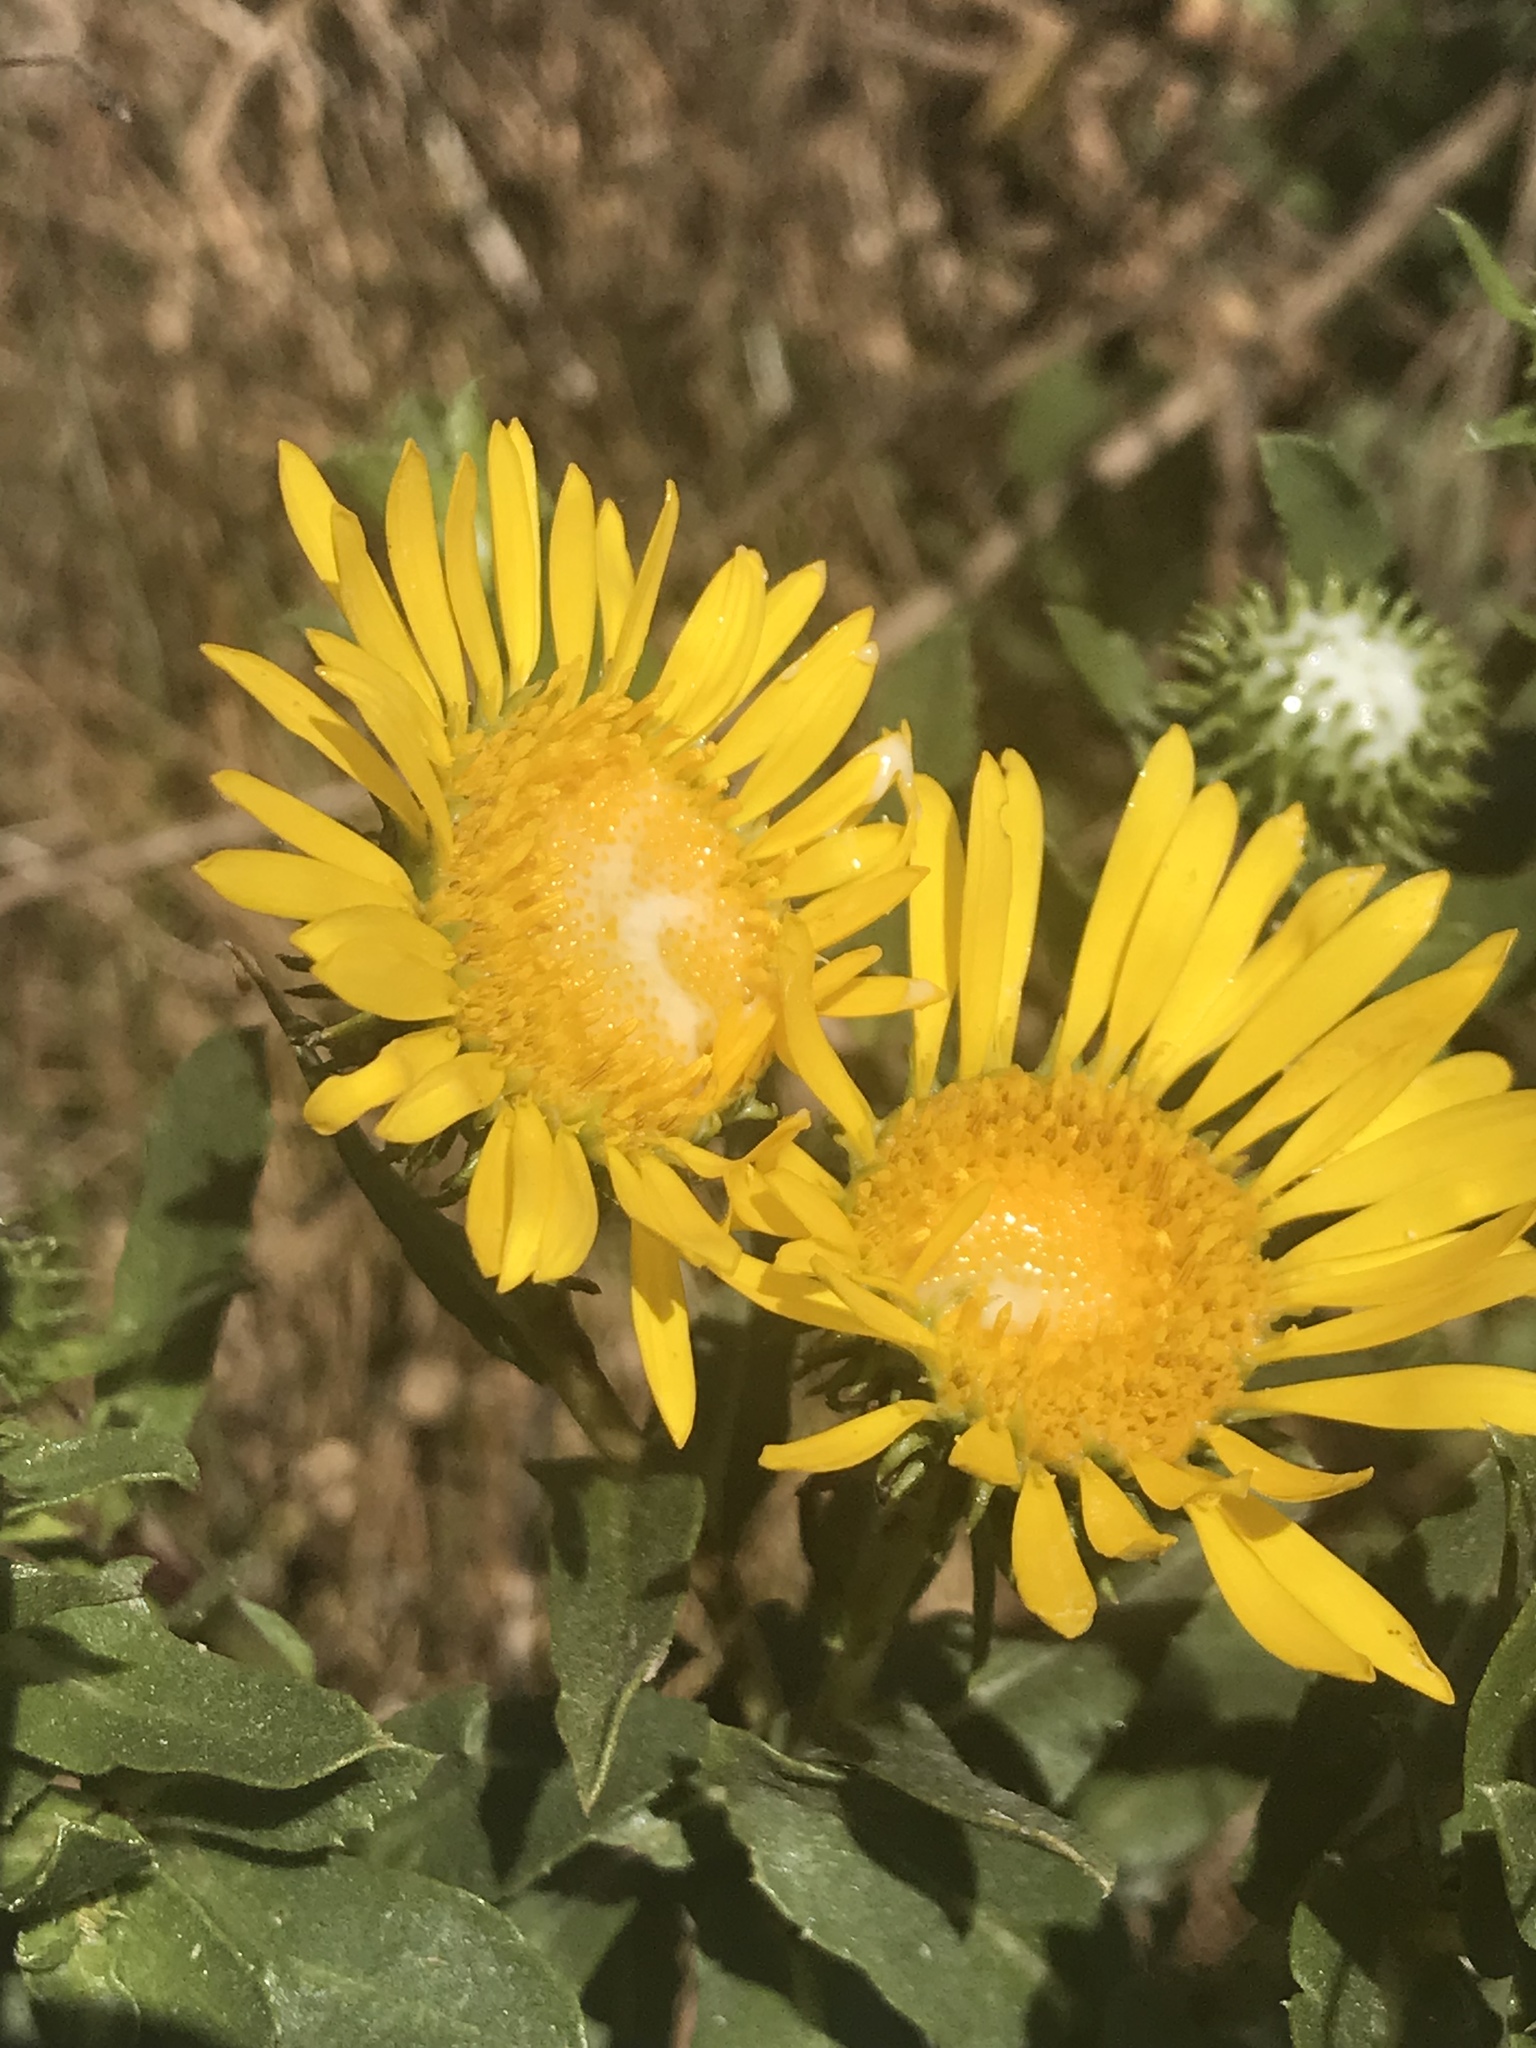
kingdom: Plantae
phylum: Tracheophyta
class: Magnoliopsida
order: Asterales
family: Asteraceae
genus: Grindelia
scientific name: Grindelia hirsutula
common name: Hairy gumweed
